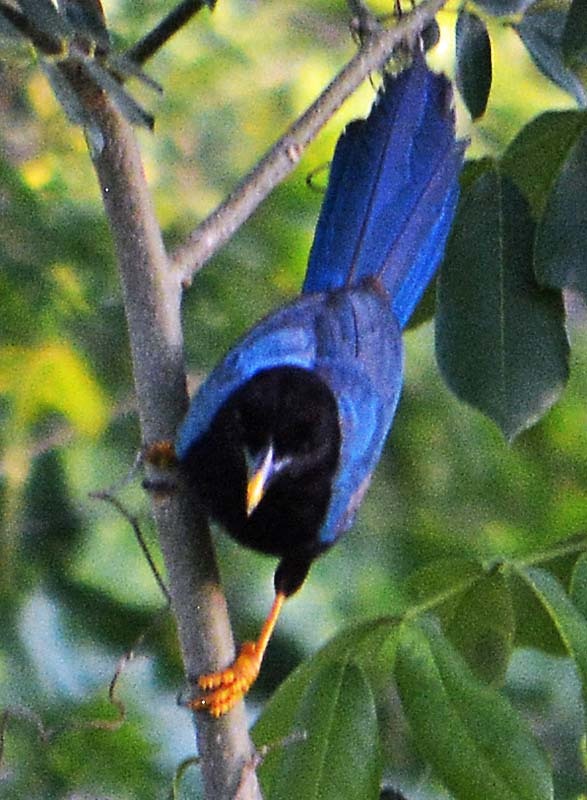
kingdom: Animalia
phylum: Chordata
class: Aves
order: Passeriformes
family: Corvidae
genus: Cyanocorax
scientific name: Cyanocorax yucatanicus
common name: Yucatan jay
